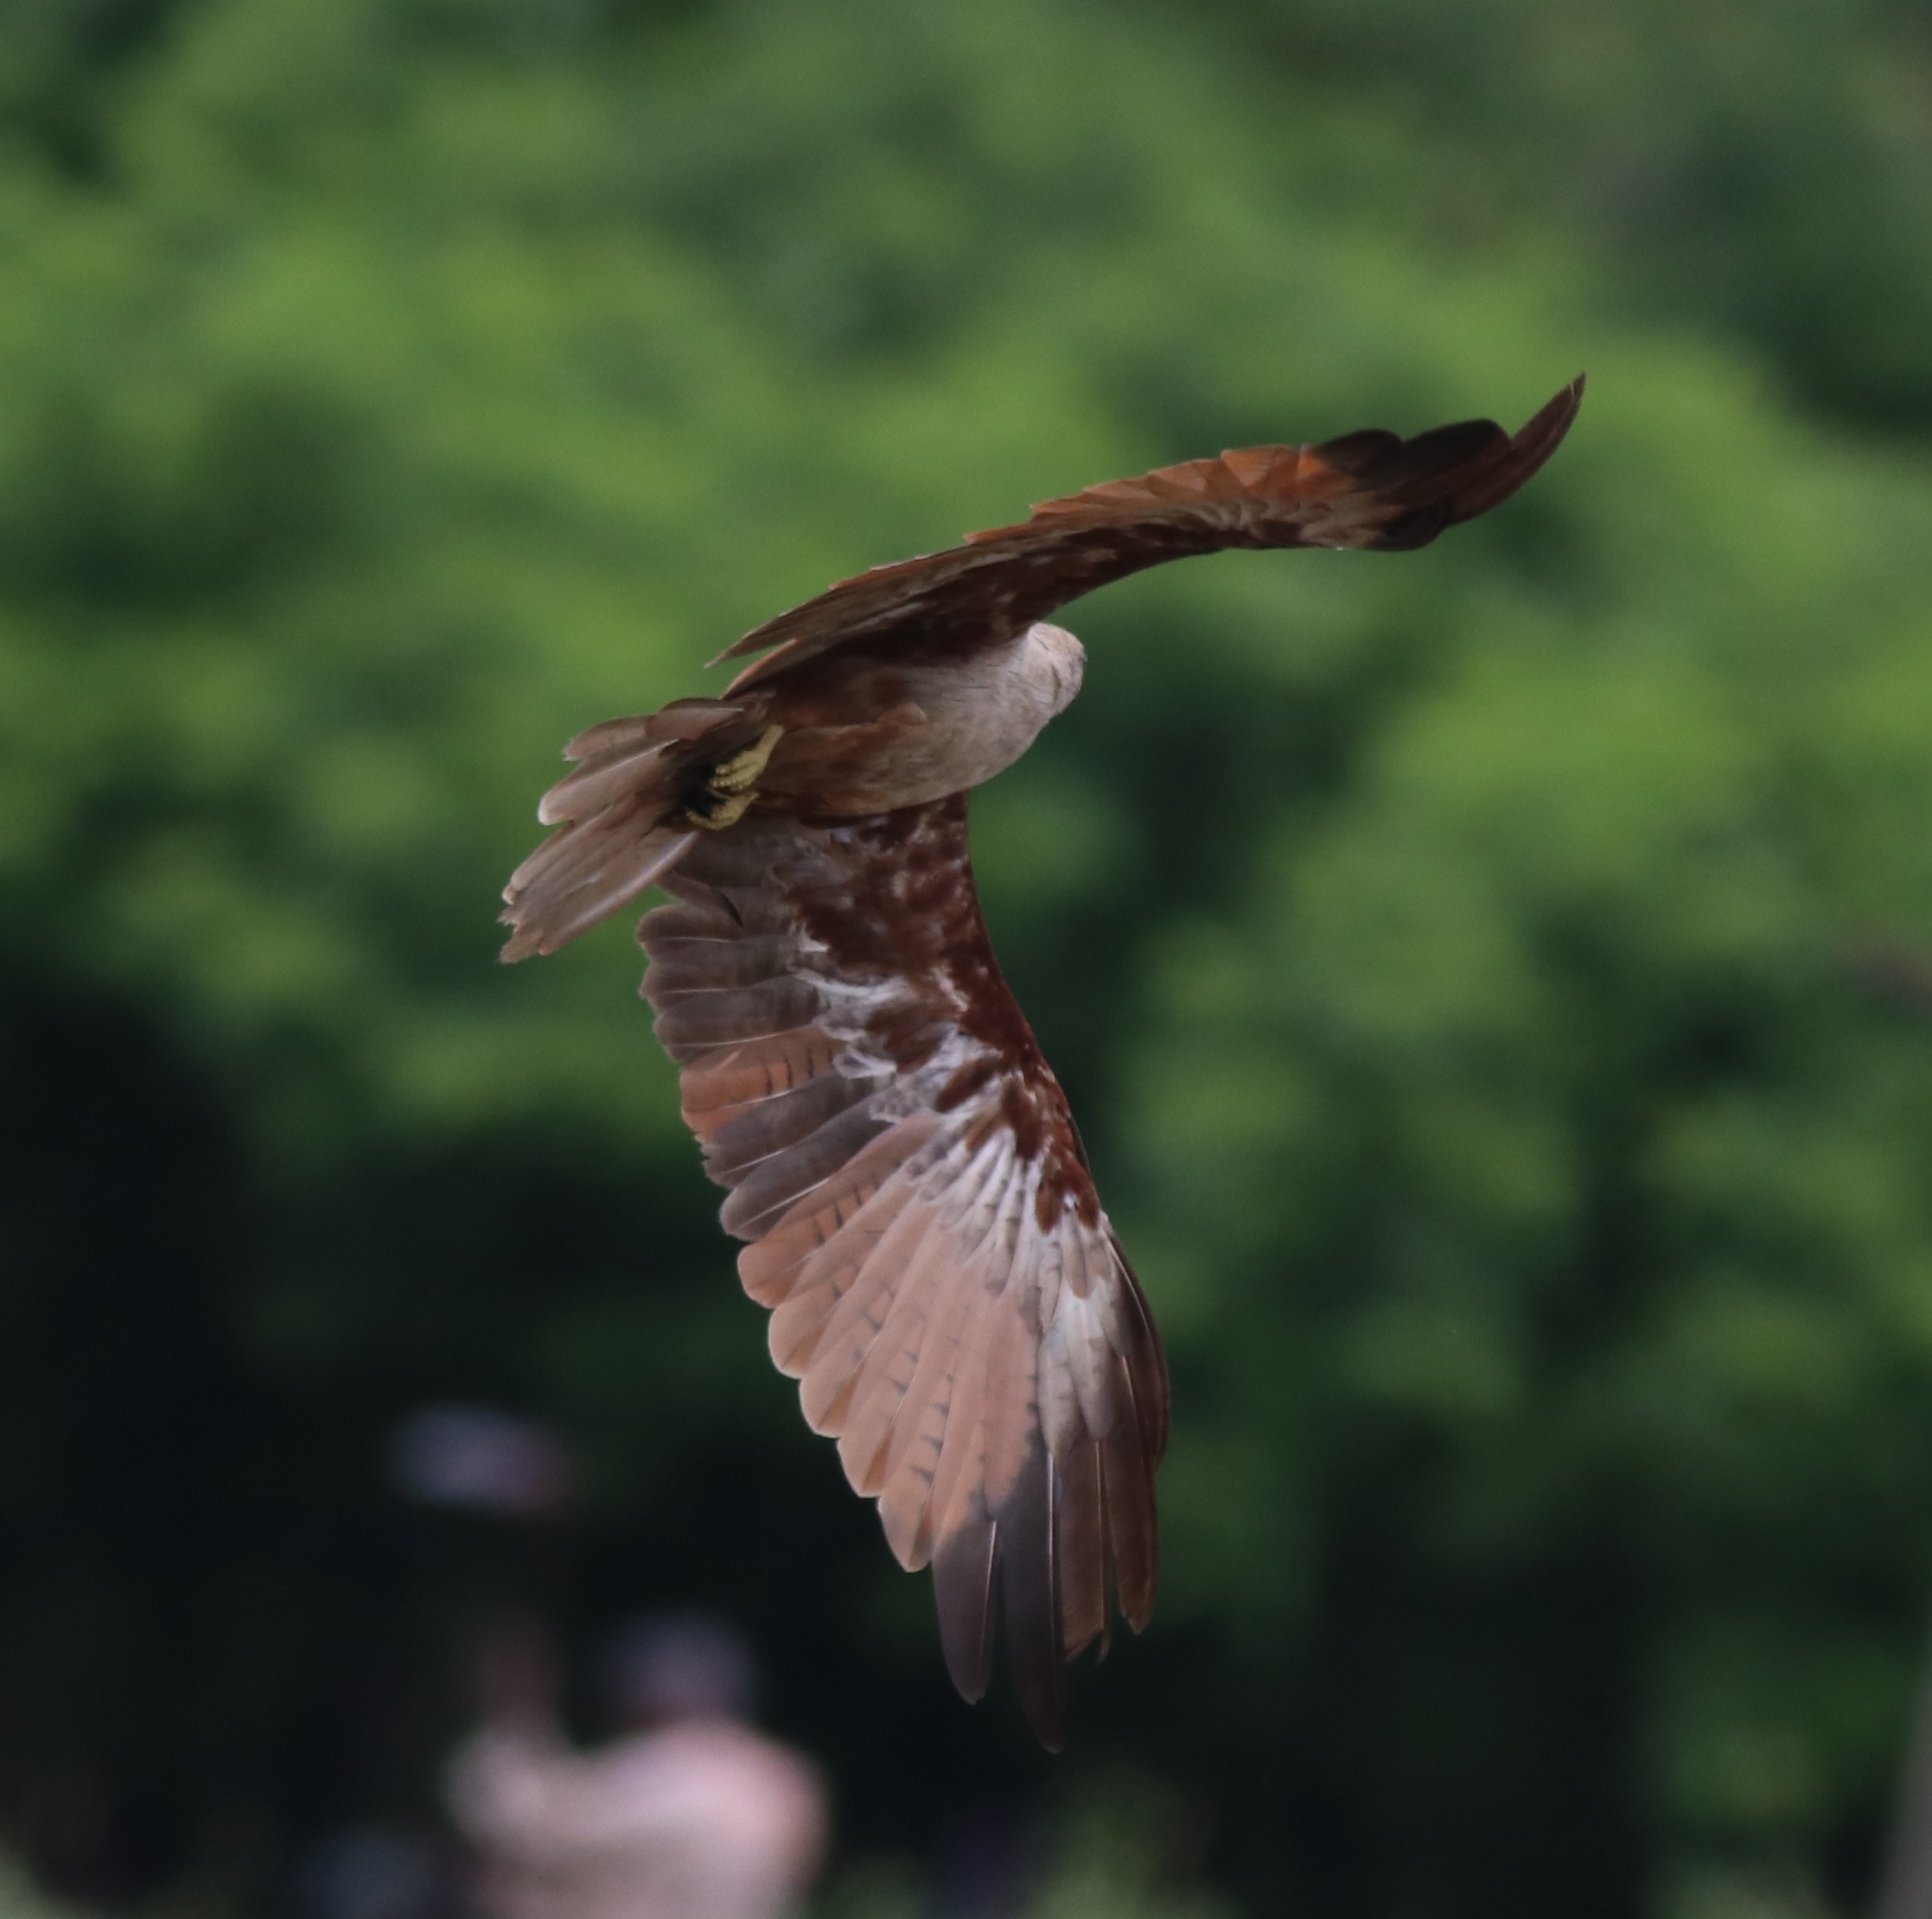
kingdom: Animalia
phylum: Chordata
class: Aves
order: Accipitriformes
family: Accipitridae
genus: Haliastur
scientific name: Haliastur indus
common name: Brahminy kite
